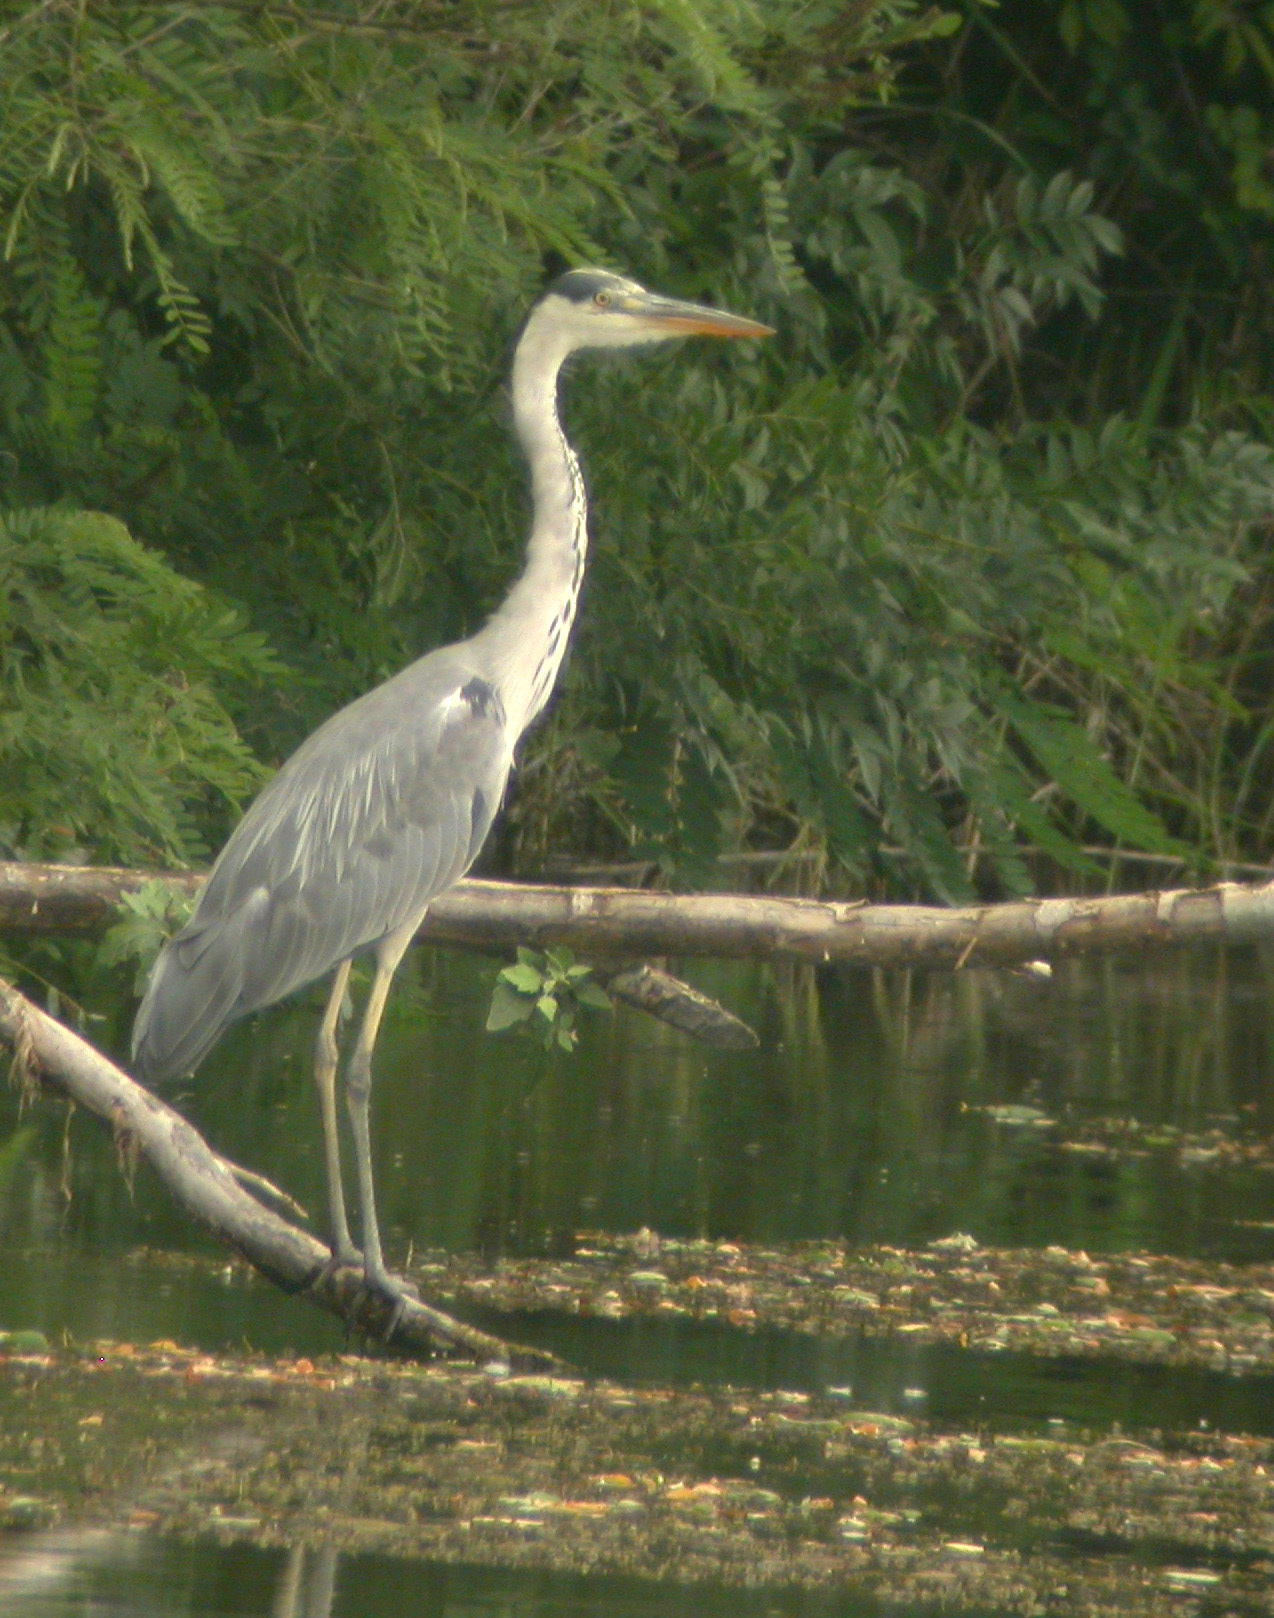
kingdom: Animalia
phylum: Chordata
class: Aves
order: Pelecaniformes
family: Ardeidae
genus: Ardea
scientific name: Ardea cinerea
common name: Grey heron
